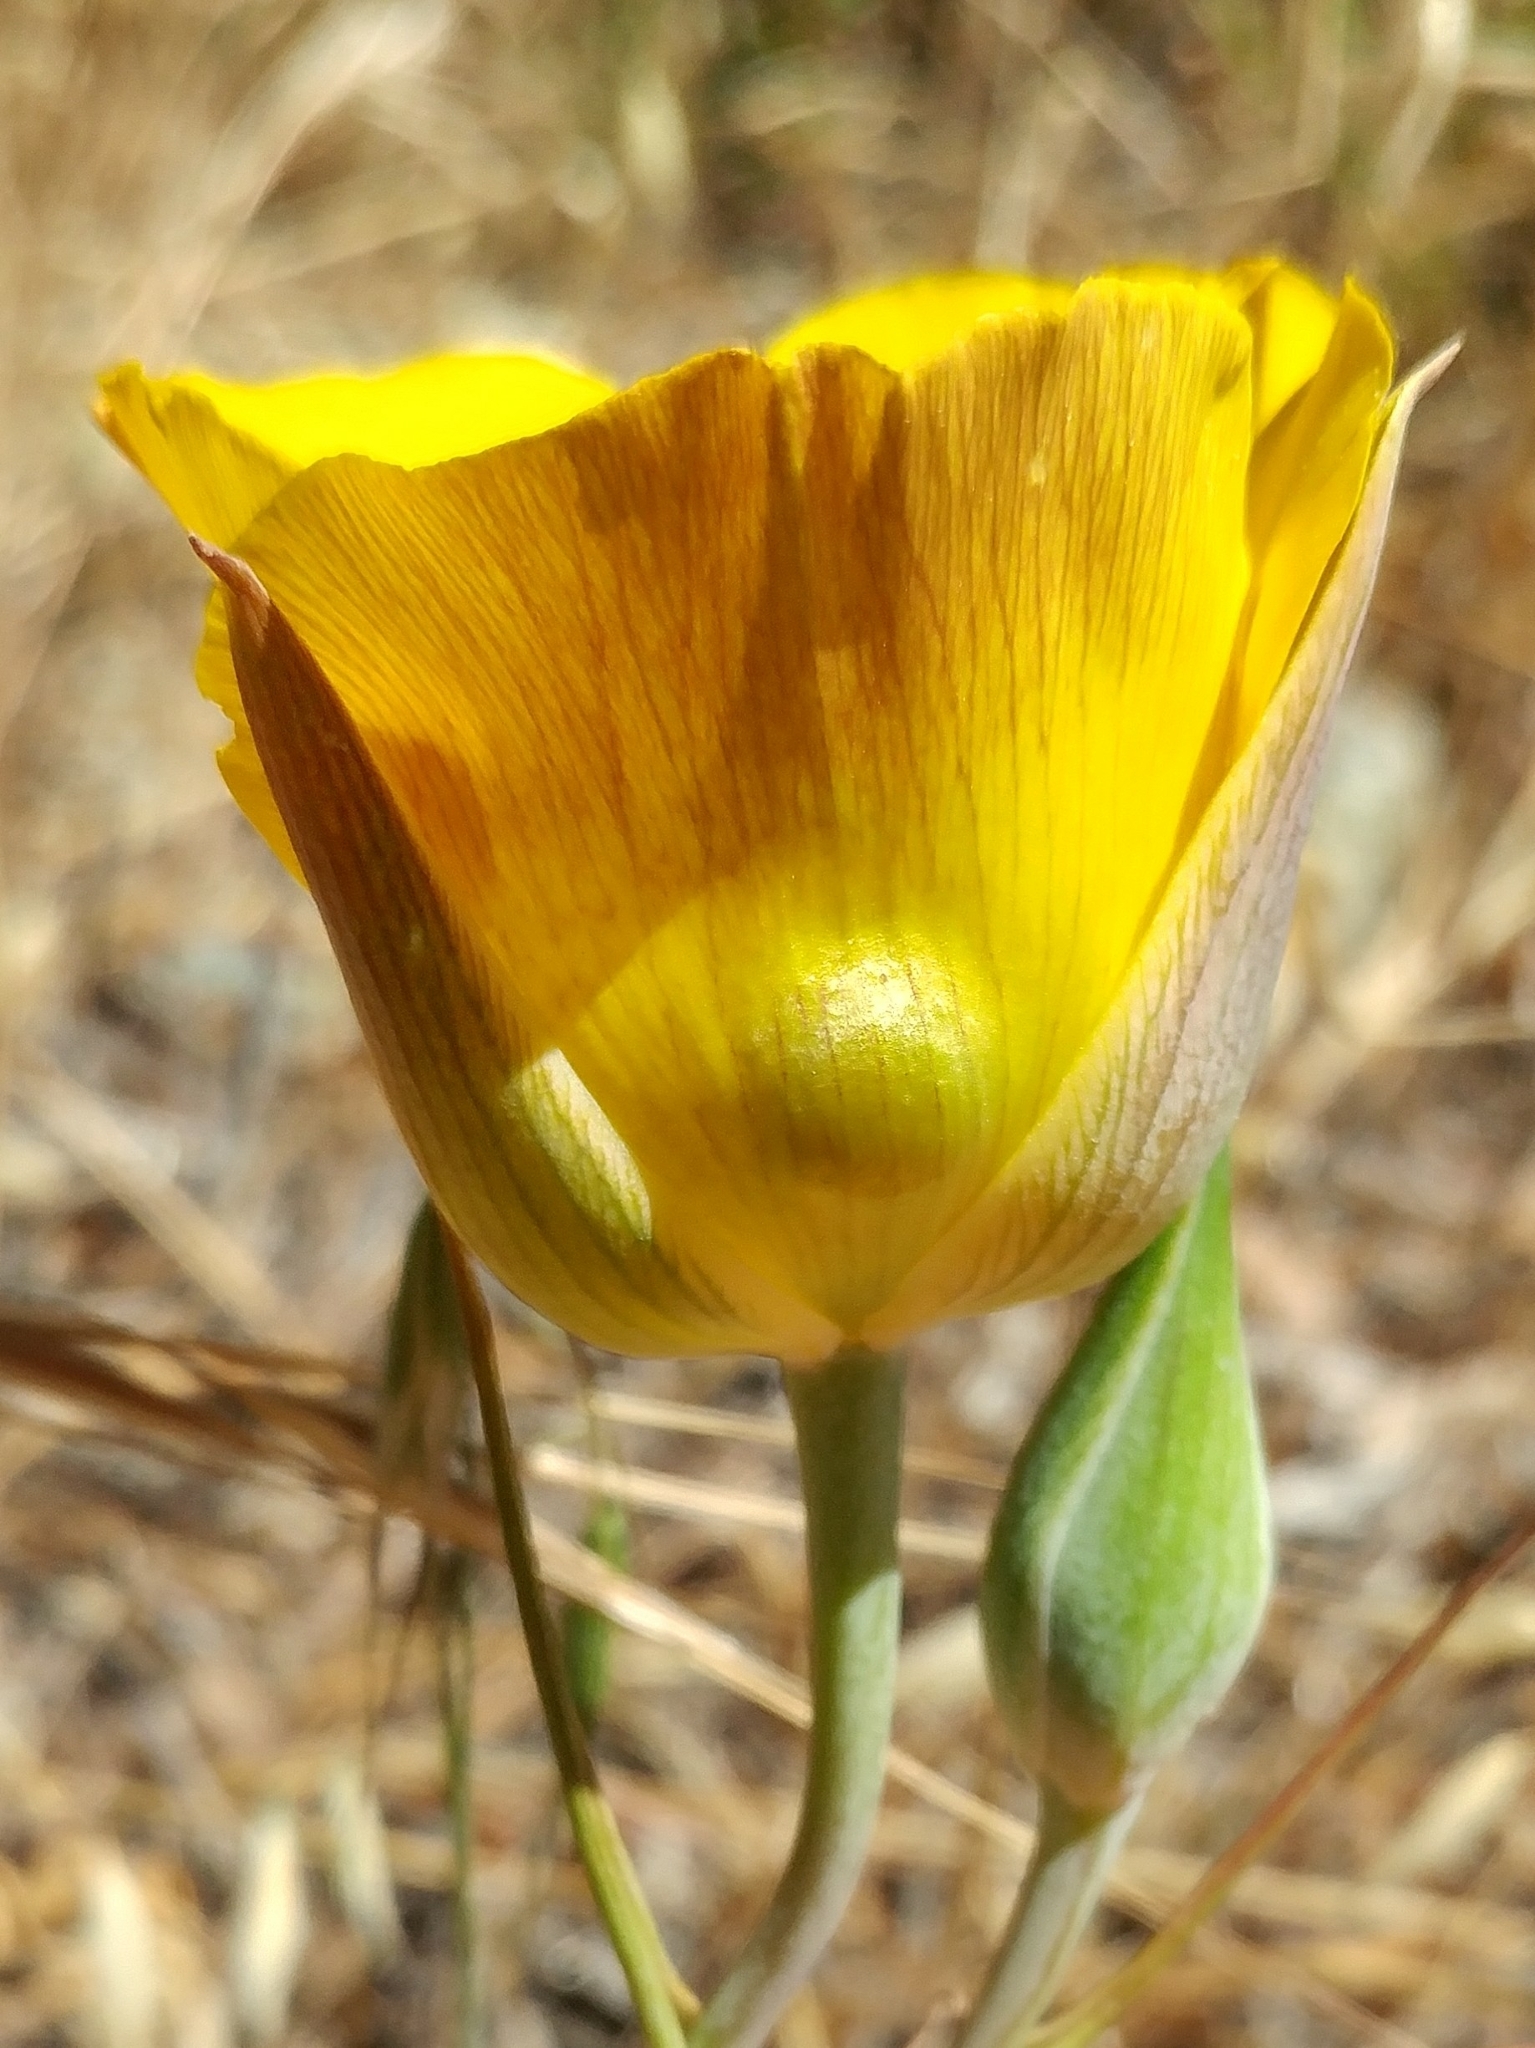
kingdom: Plantae
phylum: Tracheophyta
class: Liliopsida
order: Liliales
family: Liliaceae
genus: Calochortus
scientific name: Calochortus clavatus
